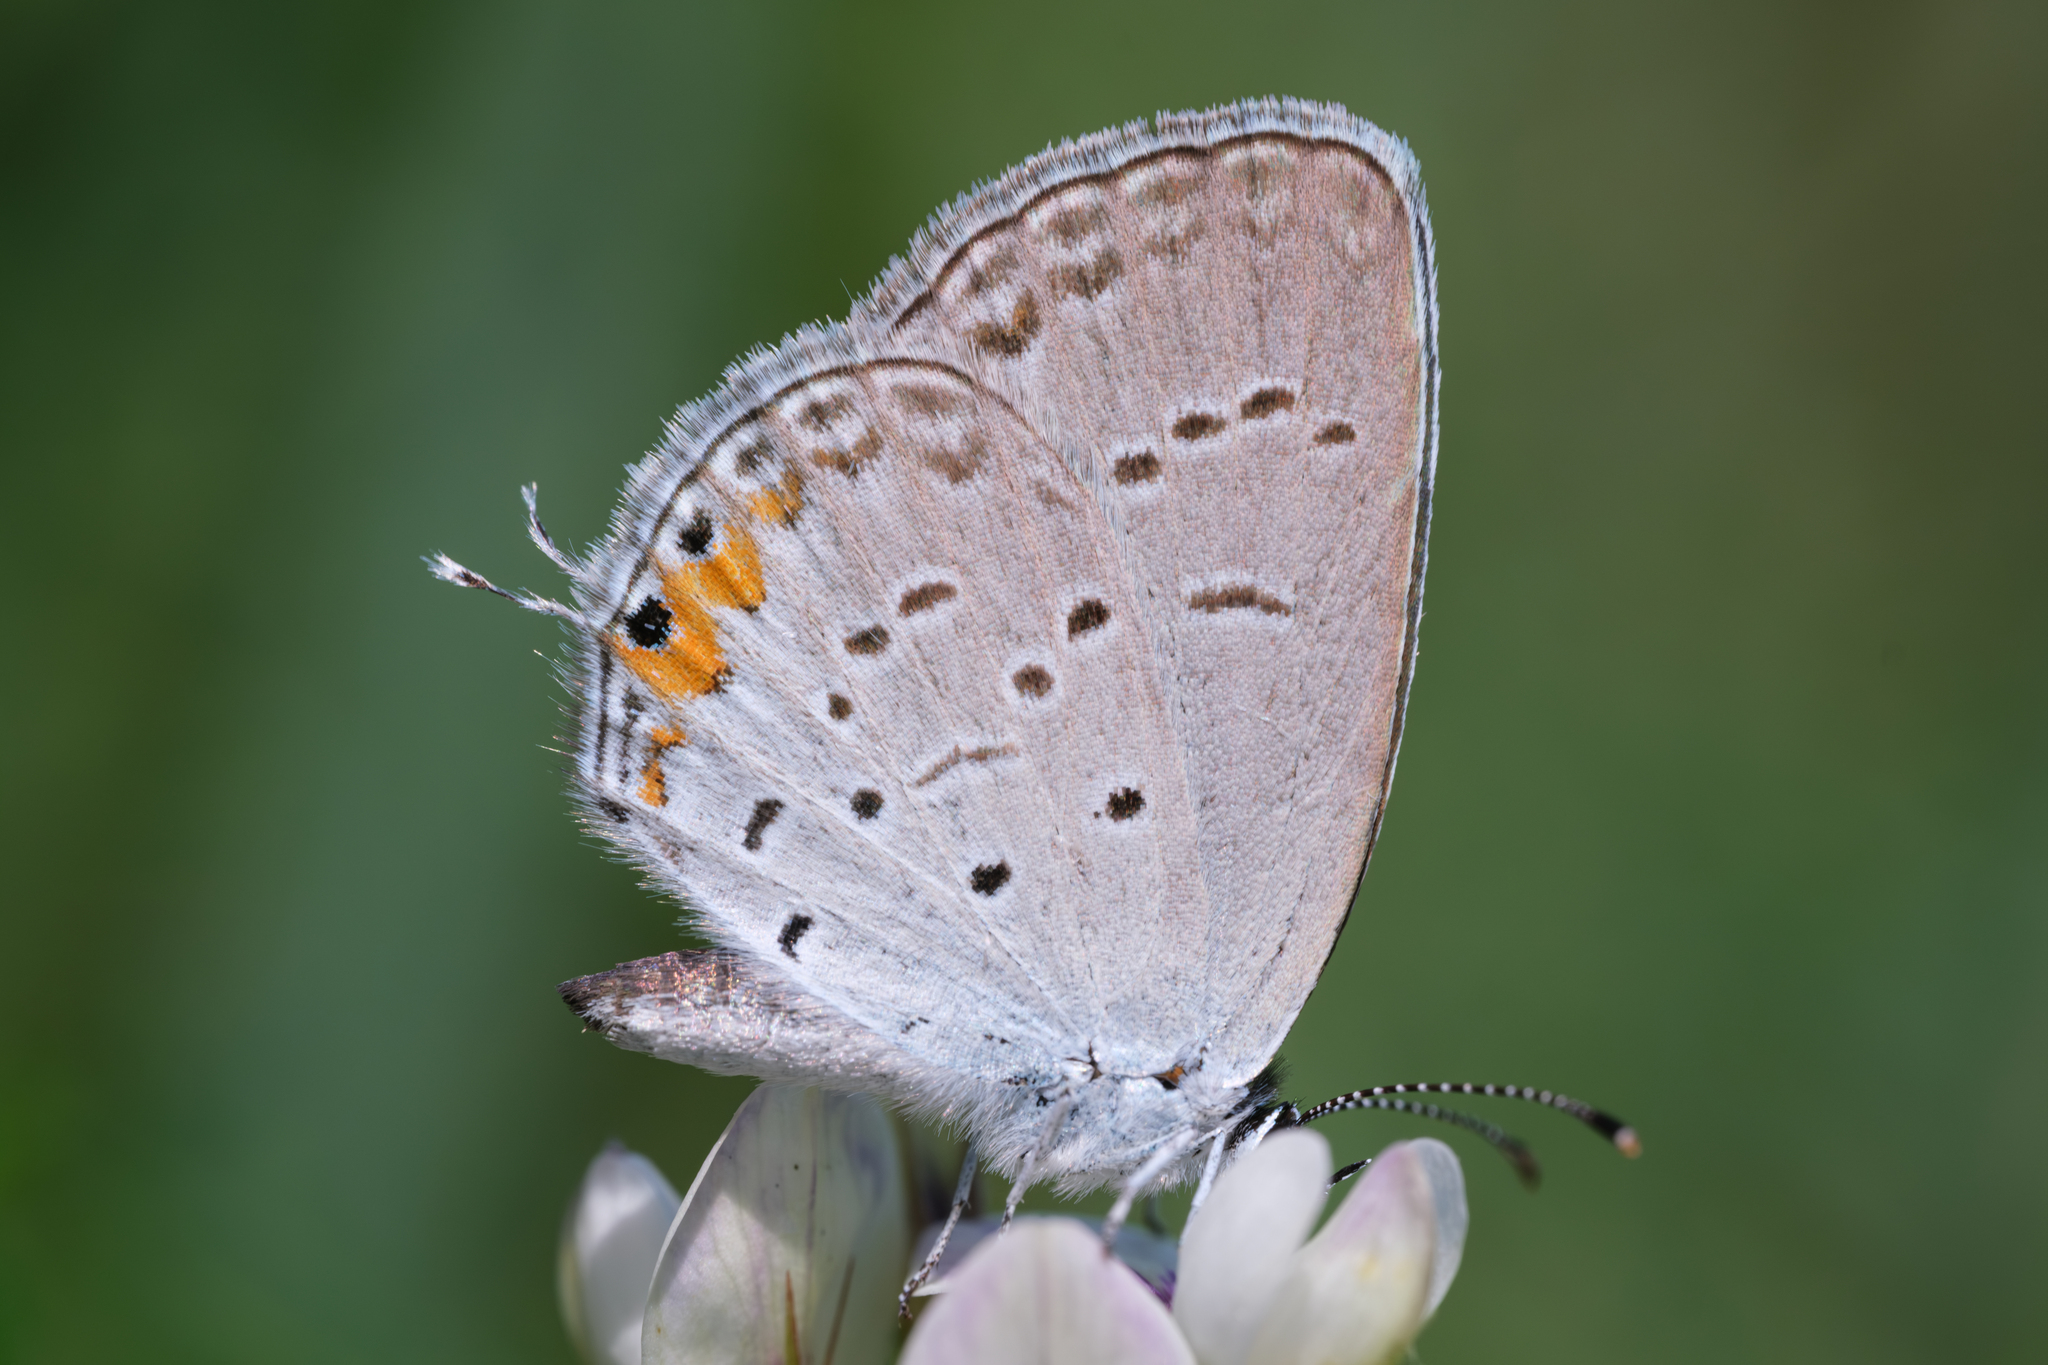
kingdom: Animalia
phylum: Arthropoda
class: Insecta
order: Lepidoptera
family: Lycaenidae
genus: Elkalyce
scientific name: Elkalyce comyntas
